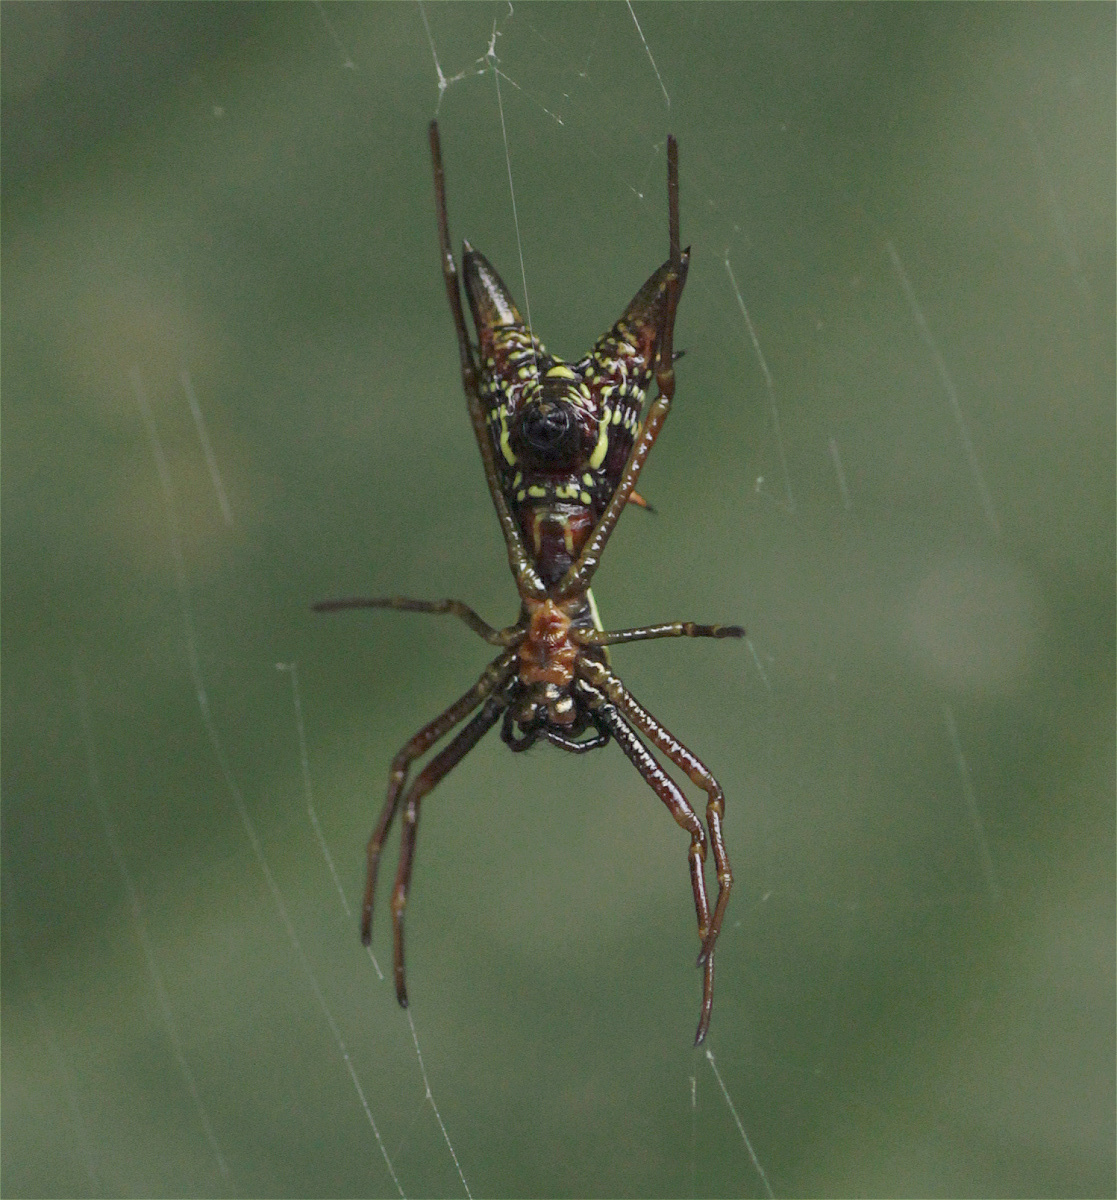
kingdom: Animalia
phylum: Arthropoda
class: Arachnida
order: Araneae
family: Araneidae
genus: Micrathena
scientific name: Micrathena sexspinosa
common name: Orb weavers
